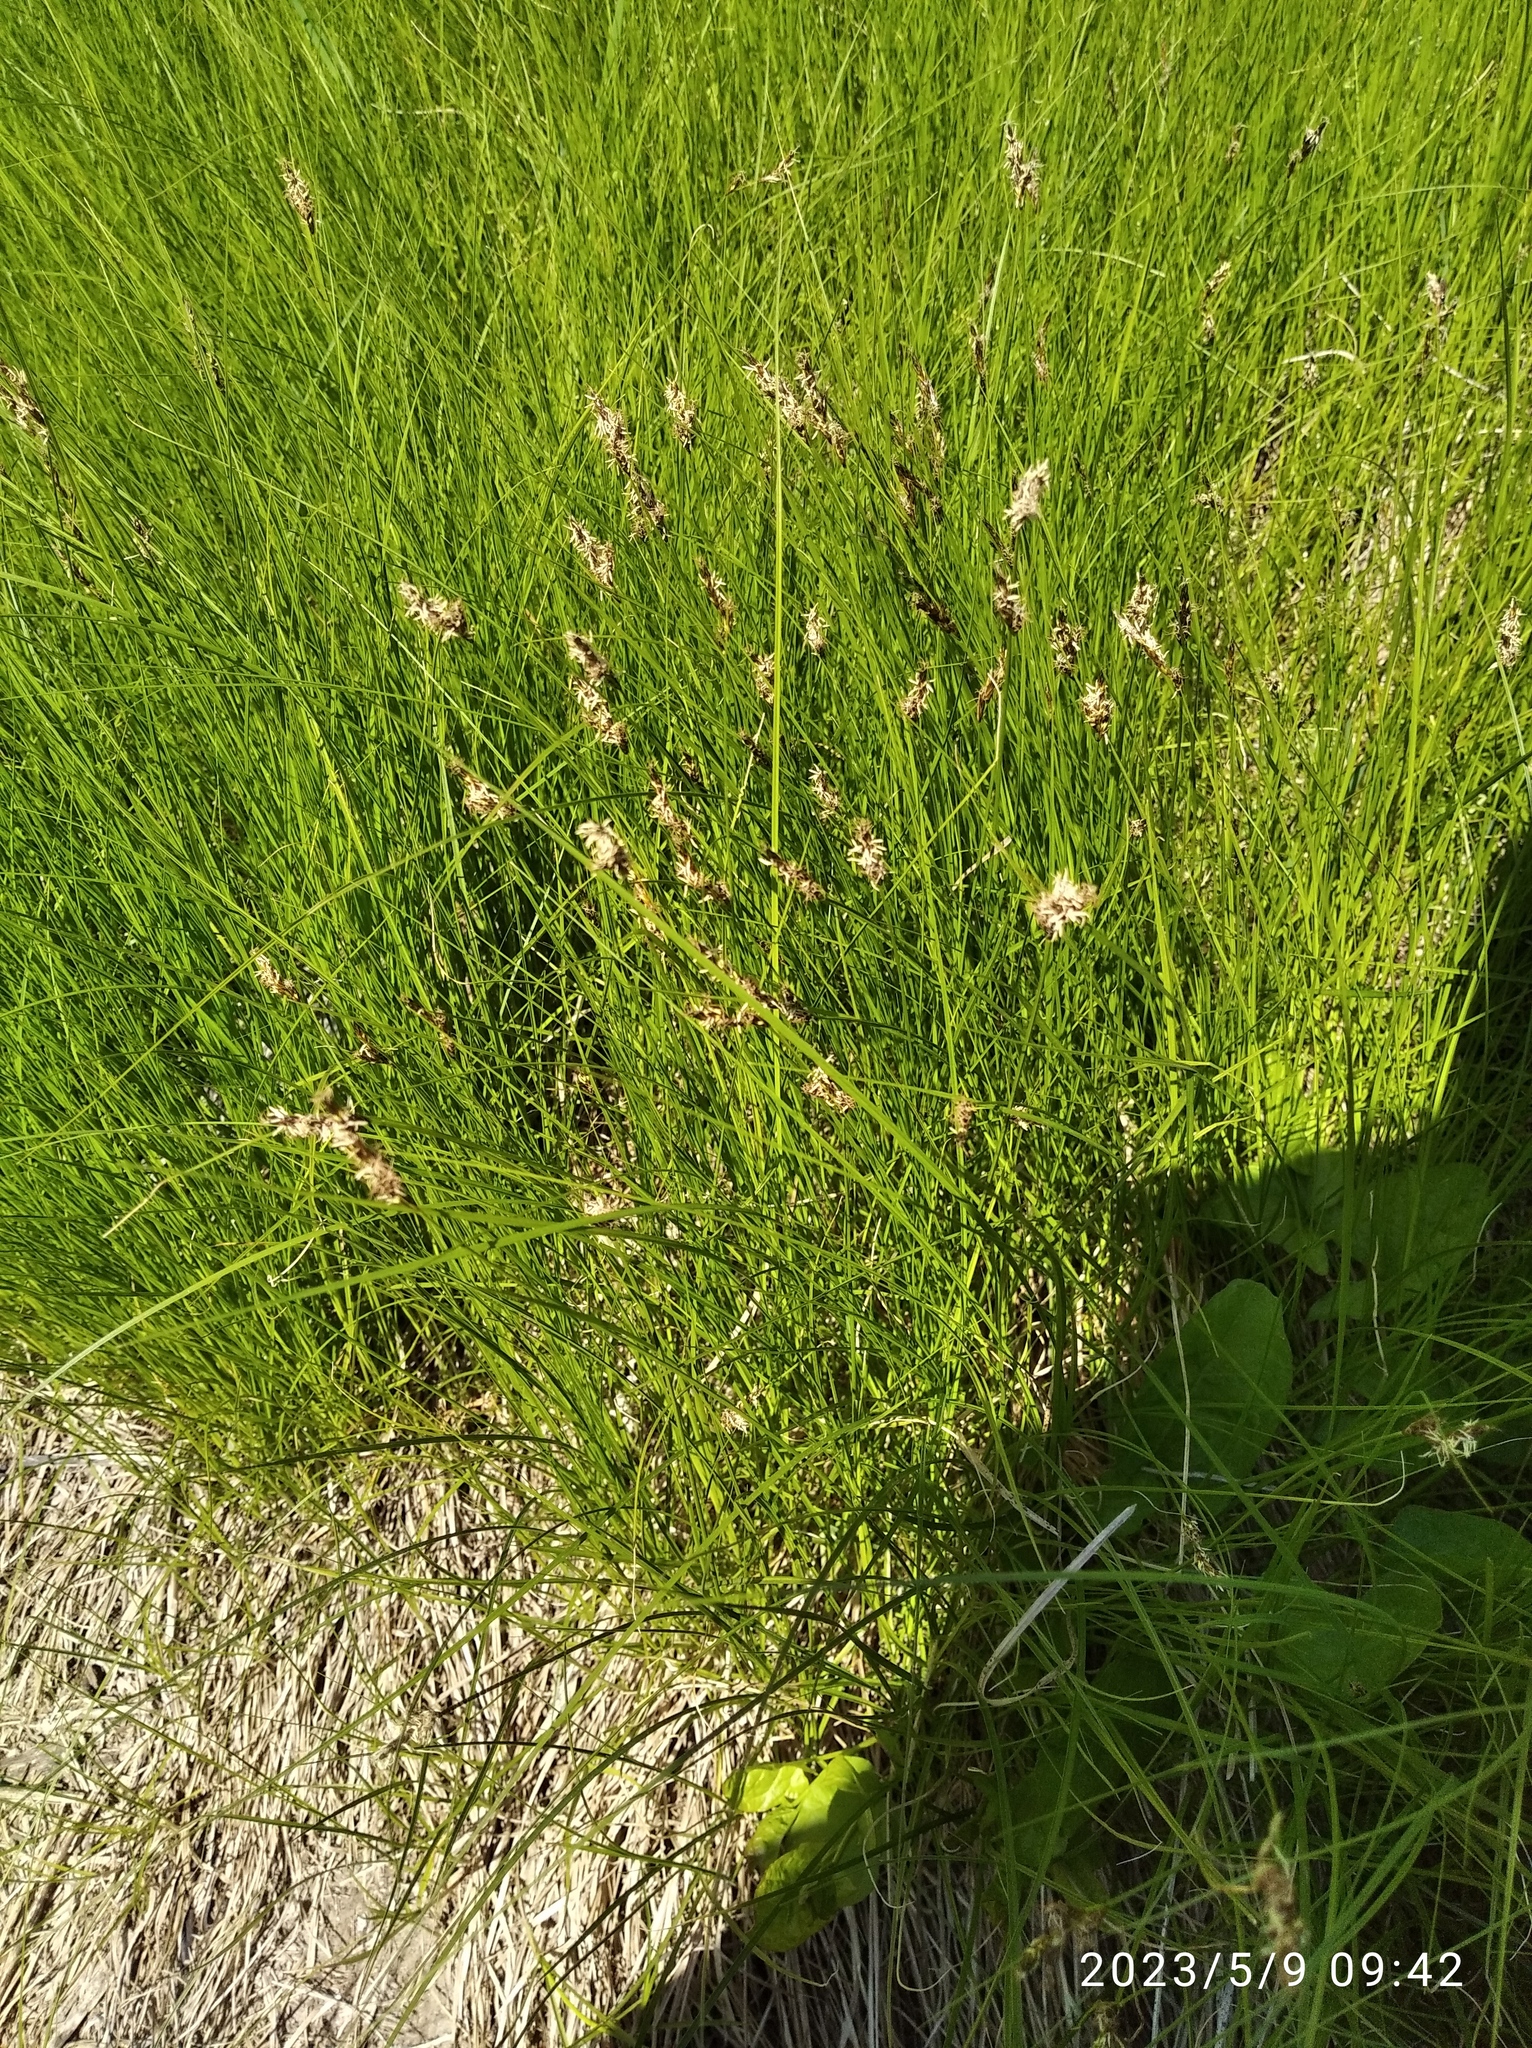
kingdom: Plantae
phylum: Tracheophyta
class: Liliopsida
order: Poales
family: Cyperaceae
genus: Carex
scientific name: Carex praecox
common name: Early sedge
